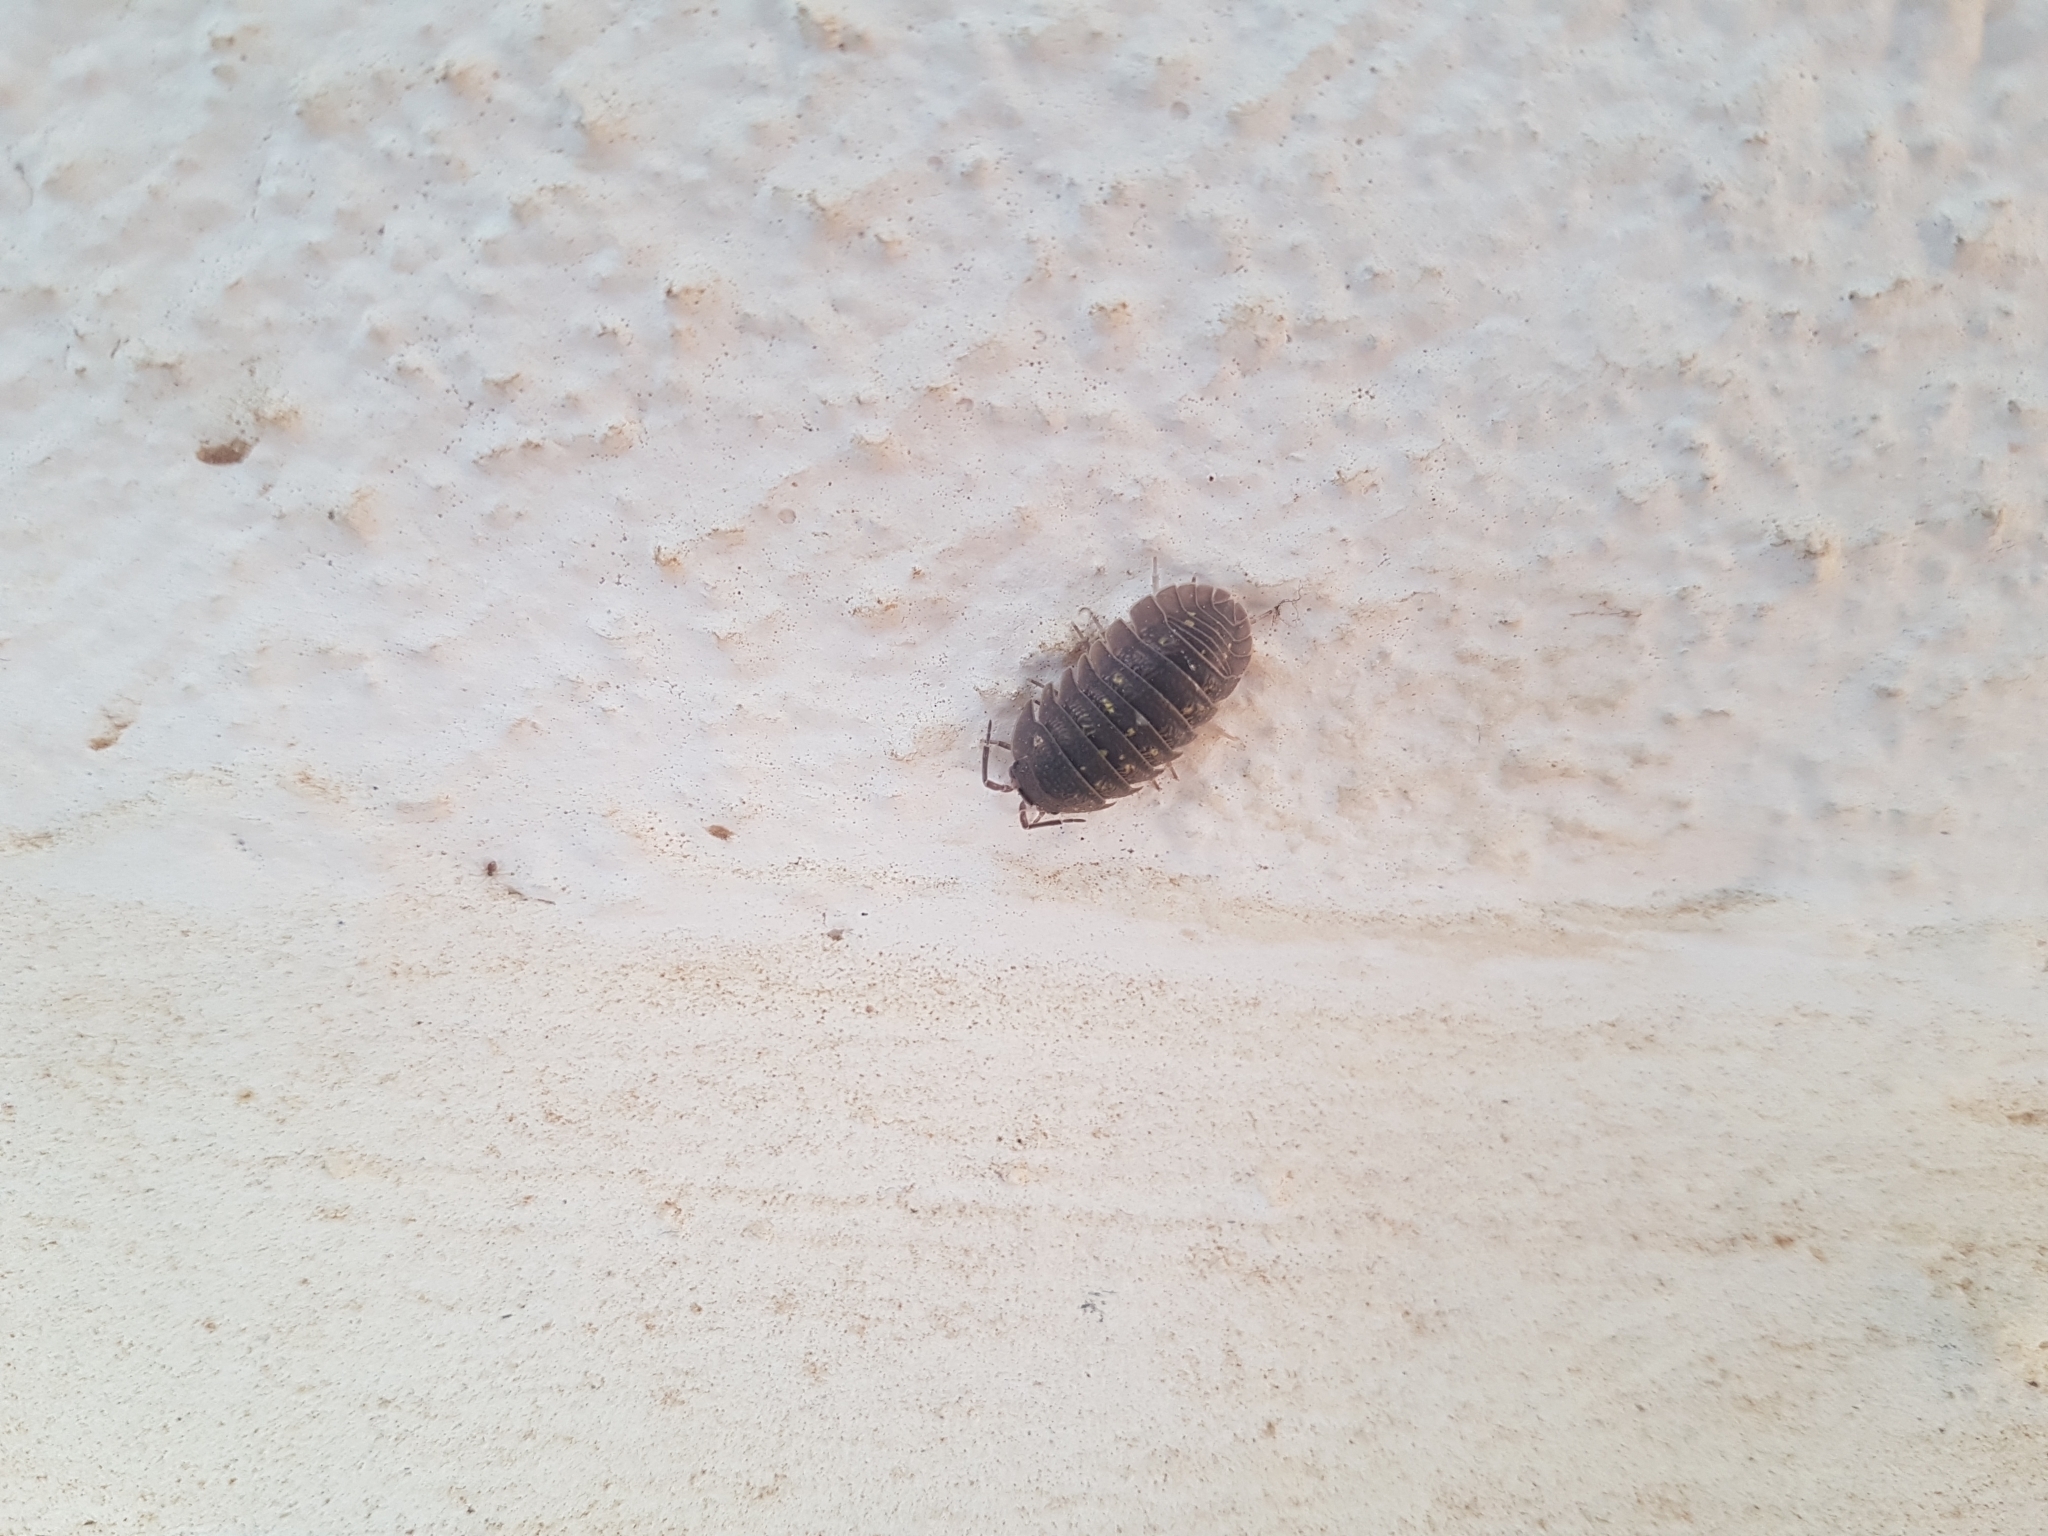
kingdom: Animalia
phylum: Arthropoda
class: Malacostraca
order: Isopoda
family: Armadillidiidae
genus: Armadillidium
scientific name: Armadillidium granulatum
